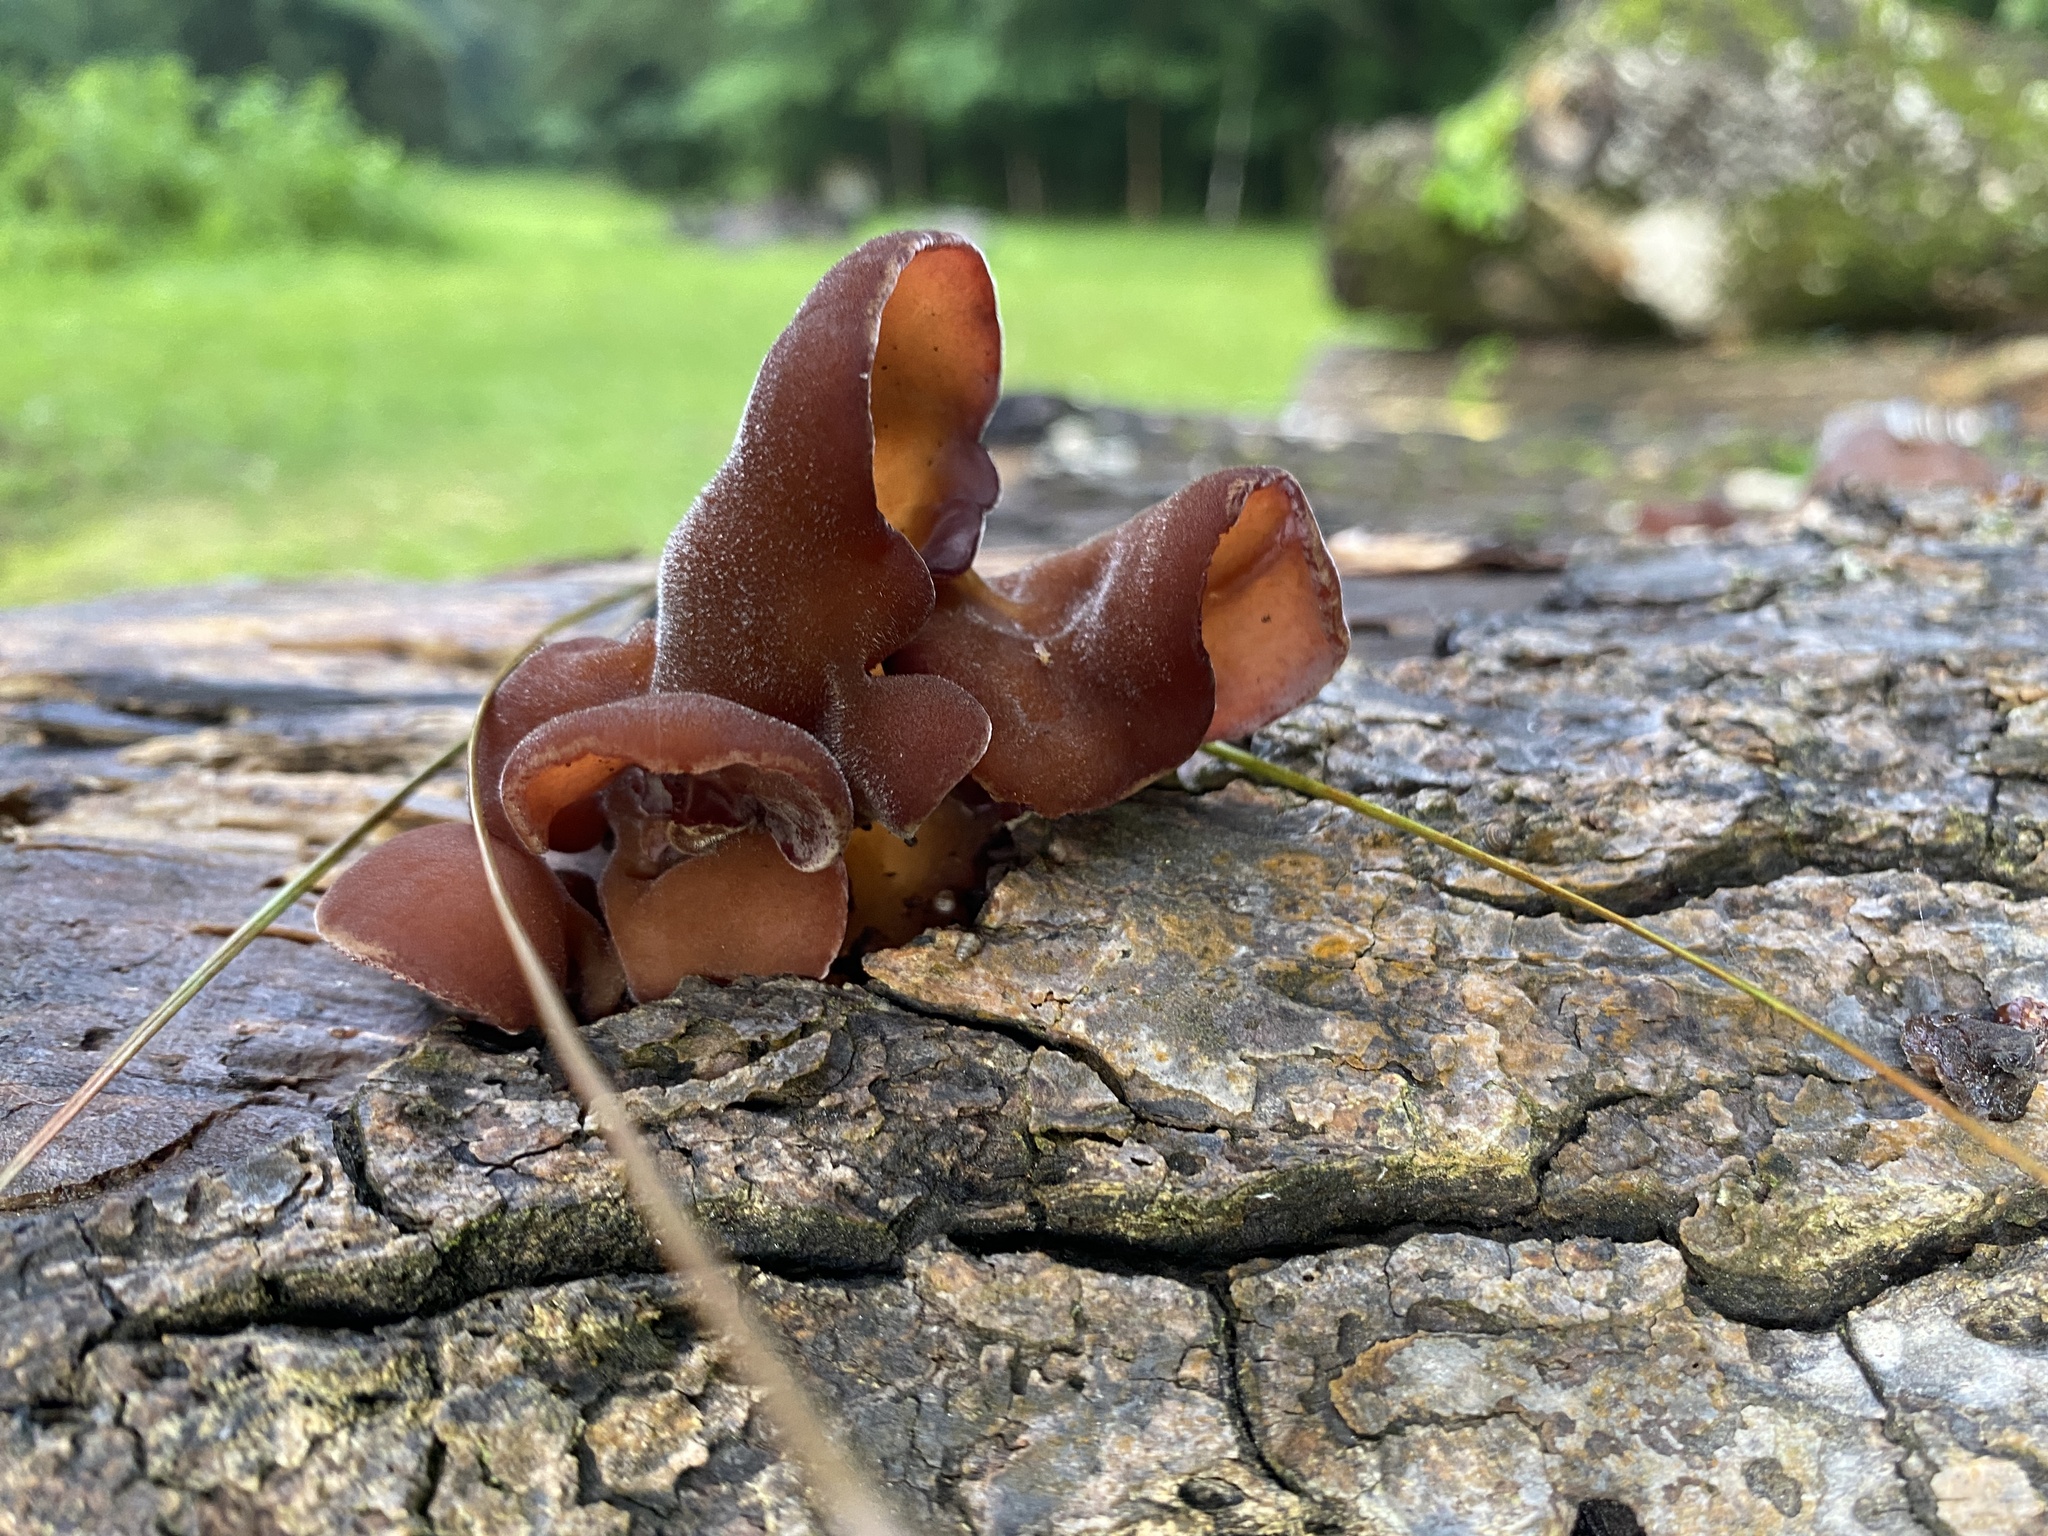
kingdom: Fungi
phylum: Basidiomycota
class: Agaricomycetes
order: Auriculariales
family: Auriculariaceae
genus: Auricularia
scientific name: Auricularia nigricans
